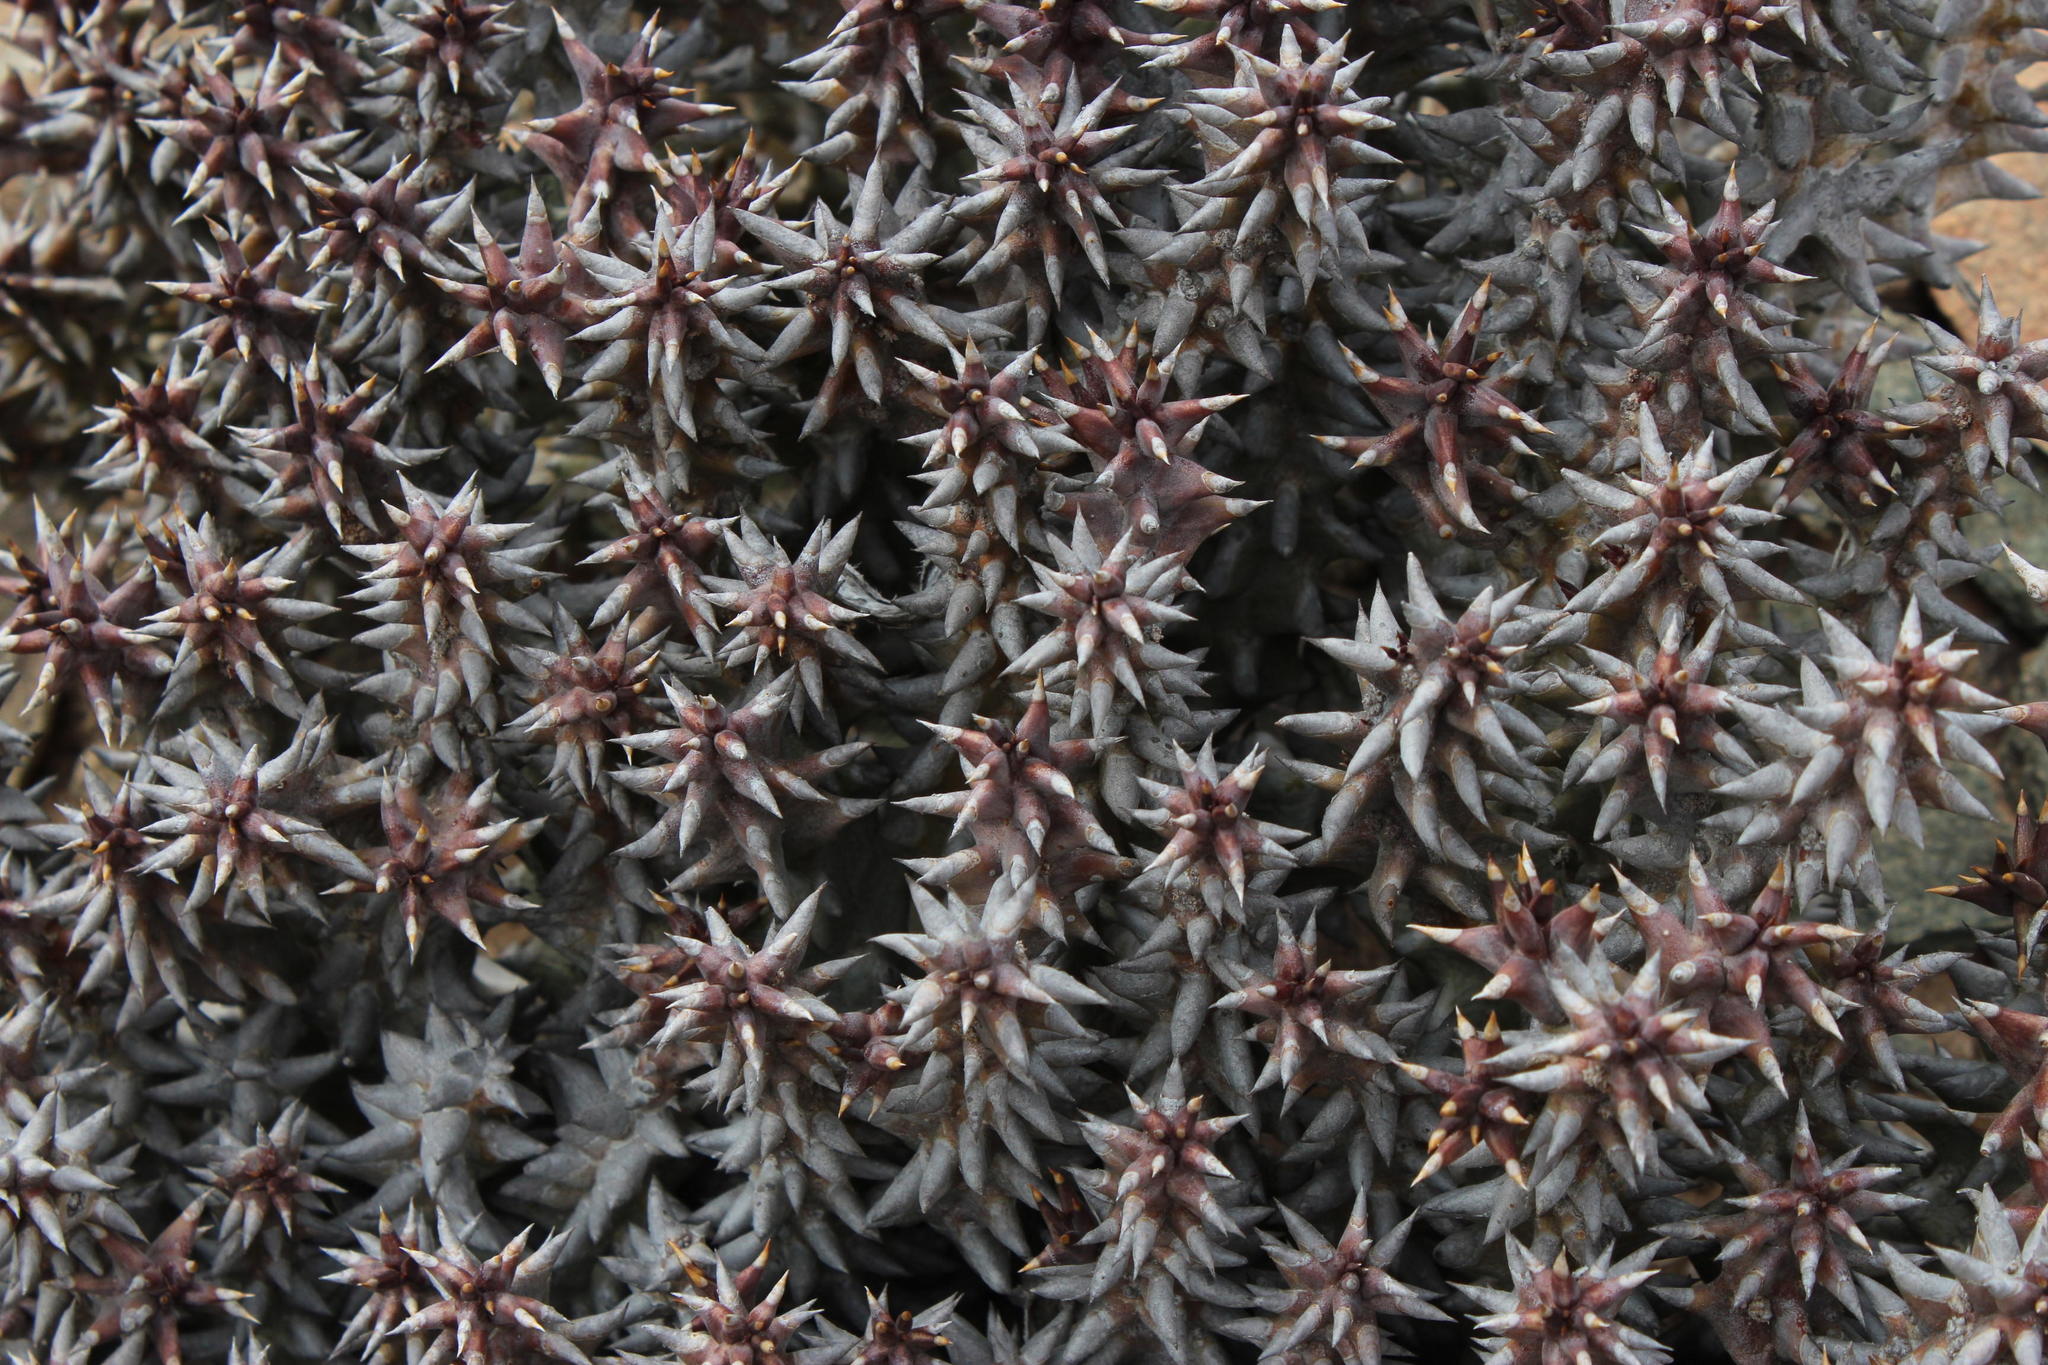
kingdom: Plantae
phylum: Tracheophyta
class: Magnoliopsida
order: Gentianales
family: Apocynaceae
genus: Ceropegia
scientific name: Ceropegia mammillaris
